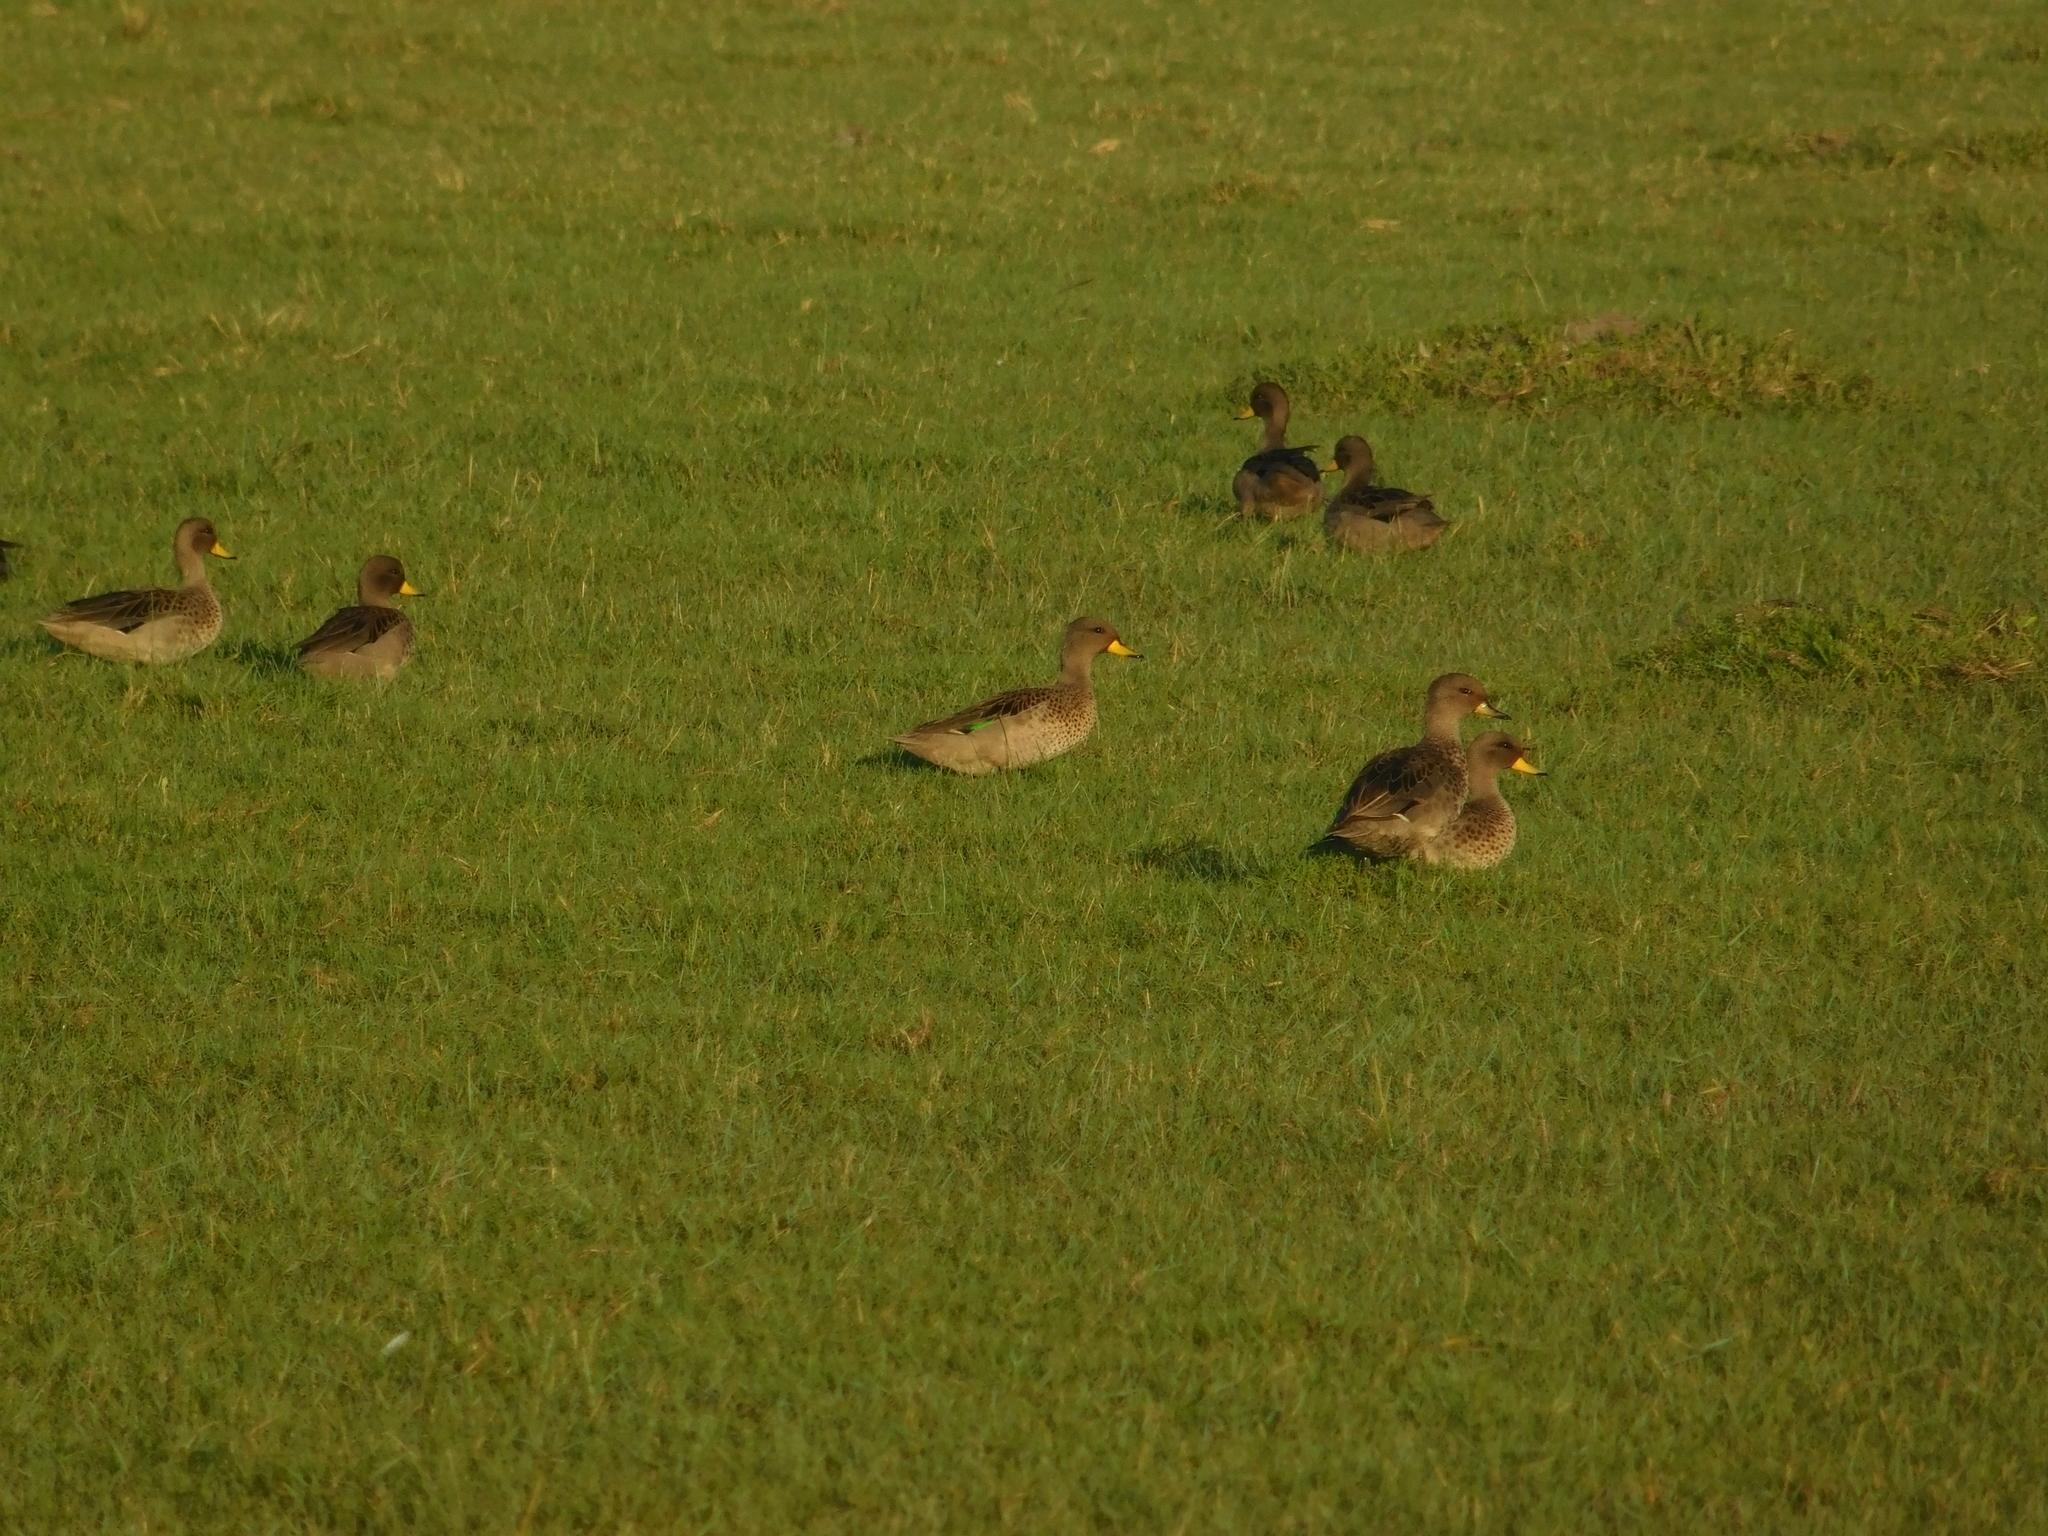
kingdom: Animalia
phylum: Chordata
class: Aves
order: Anseriformes
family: Anatidae
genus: Anas
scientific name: Anas flavirostris
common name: Yellow-billed teal
